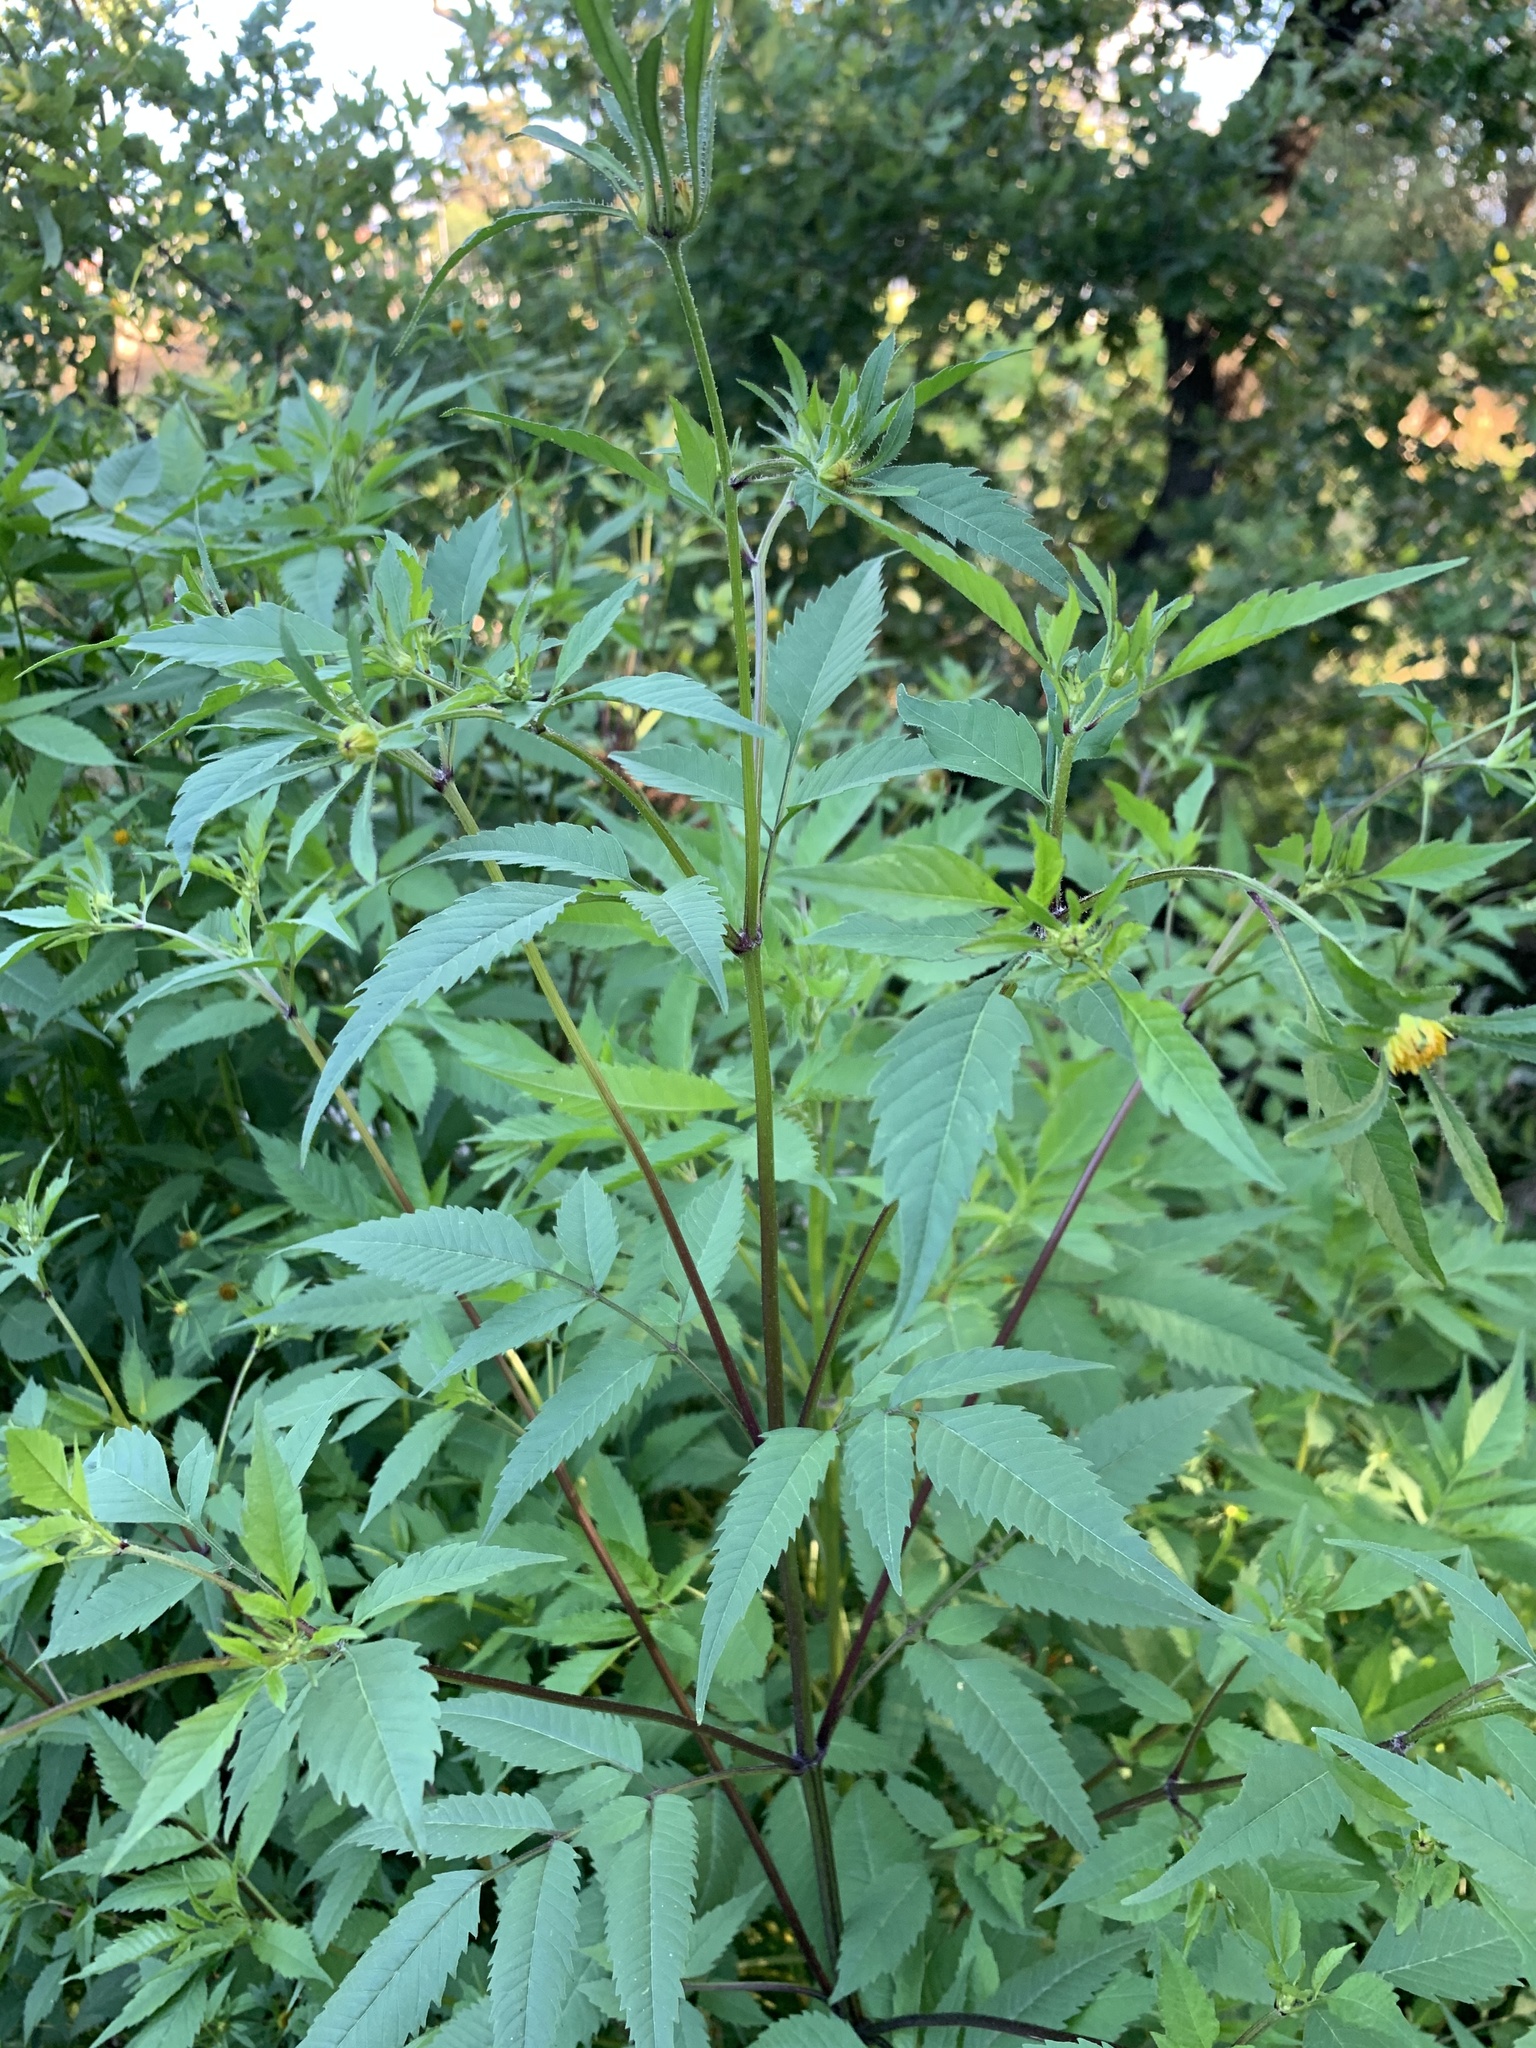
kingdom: Plantae
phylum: Tracheophyta
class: Magnoliopsida
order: Asterales
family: Asteraceae
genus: Bidens
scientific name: Bidens frondosa
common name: Beggarticks
